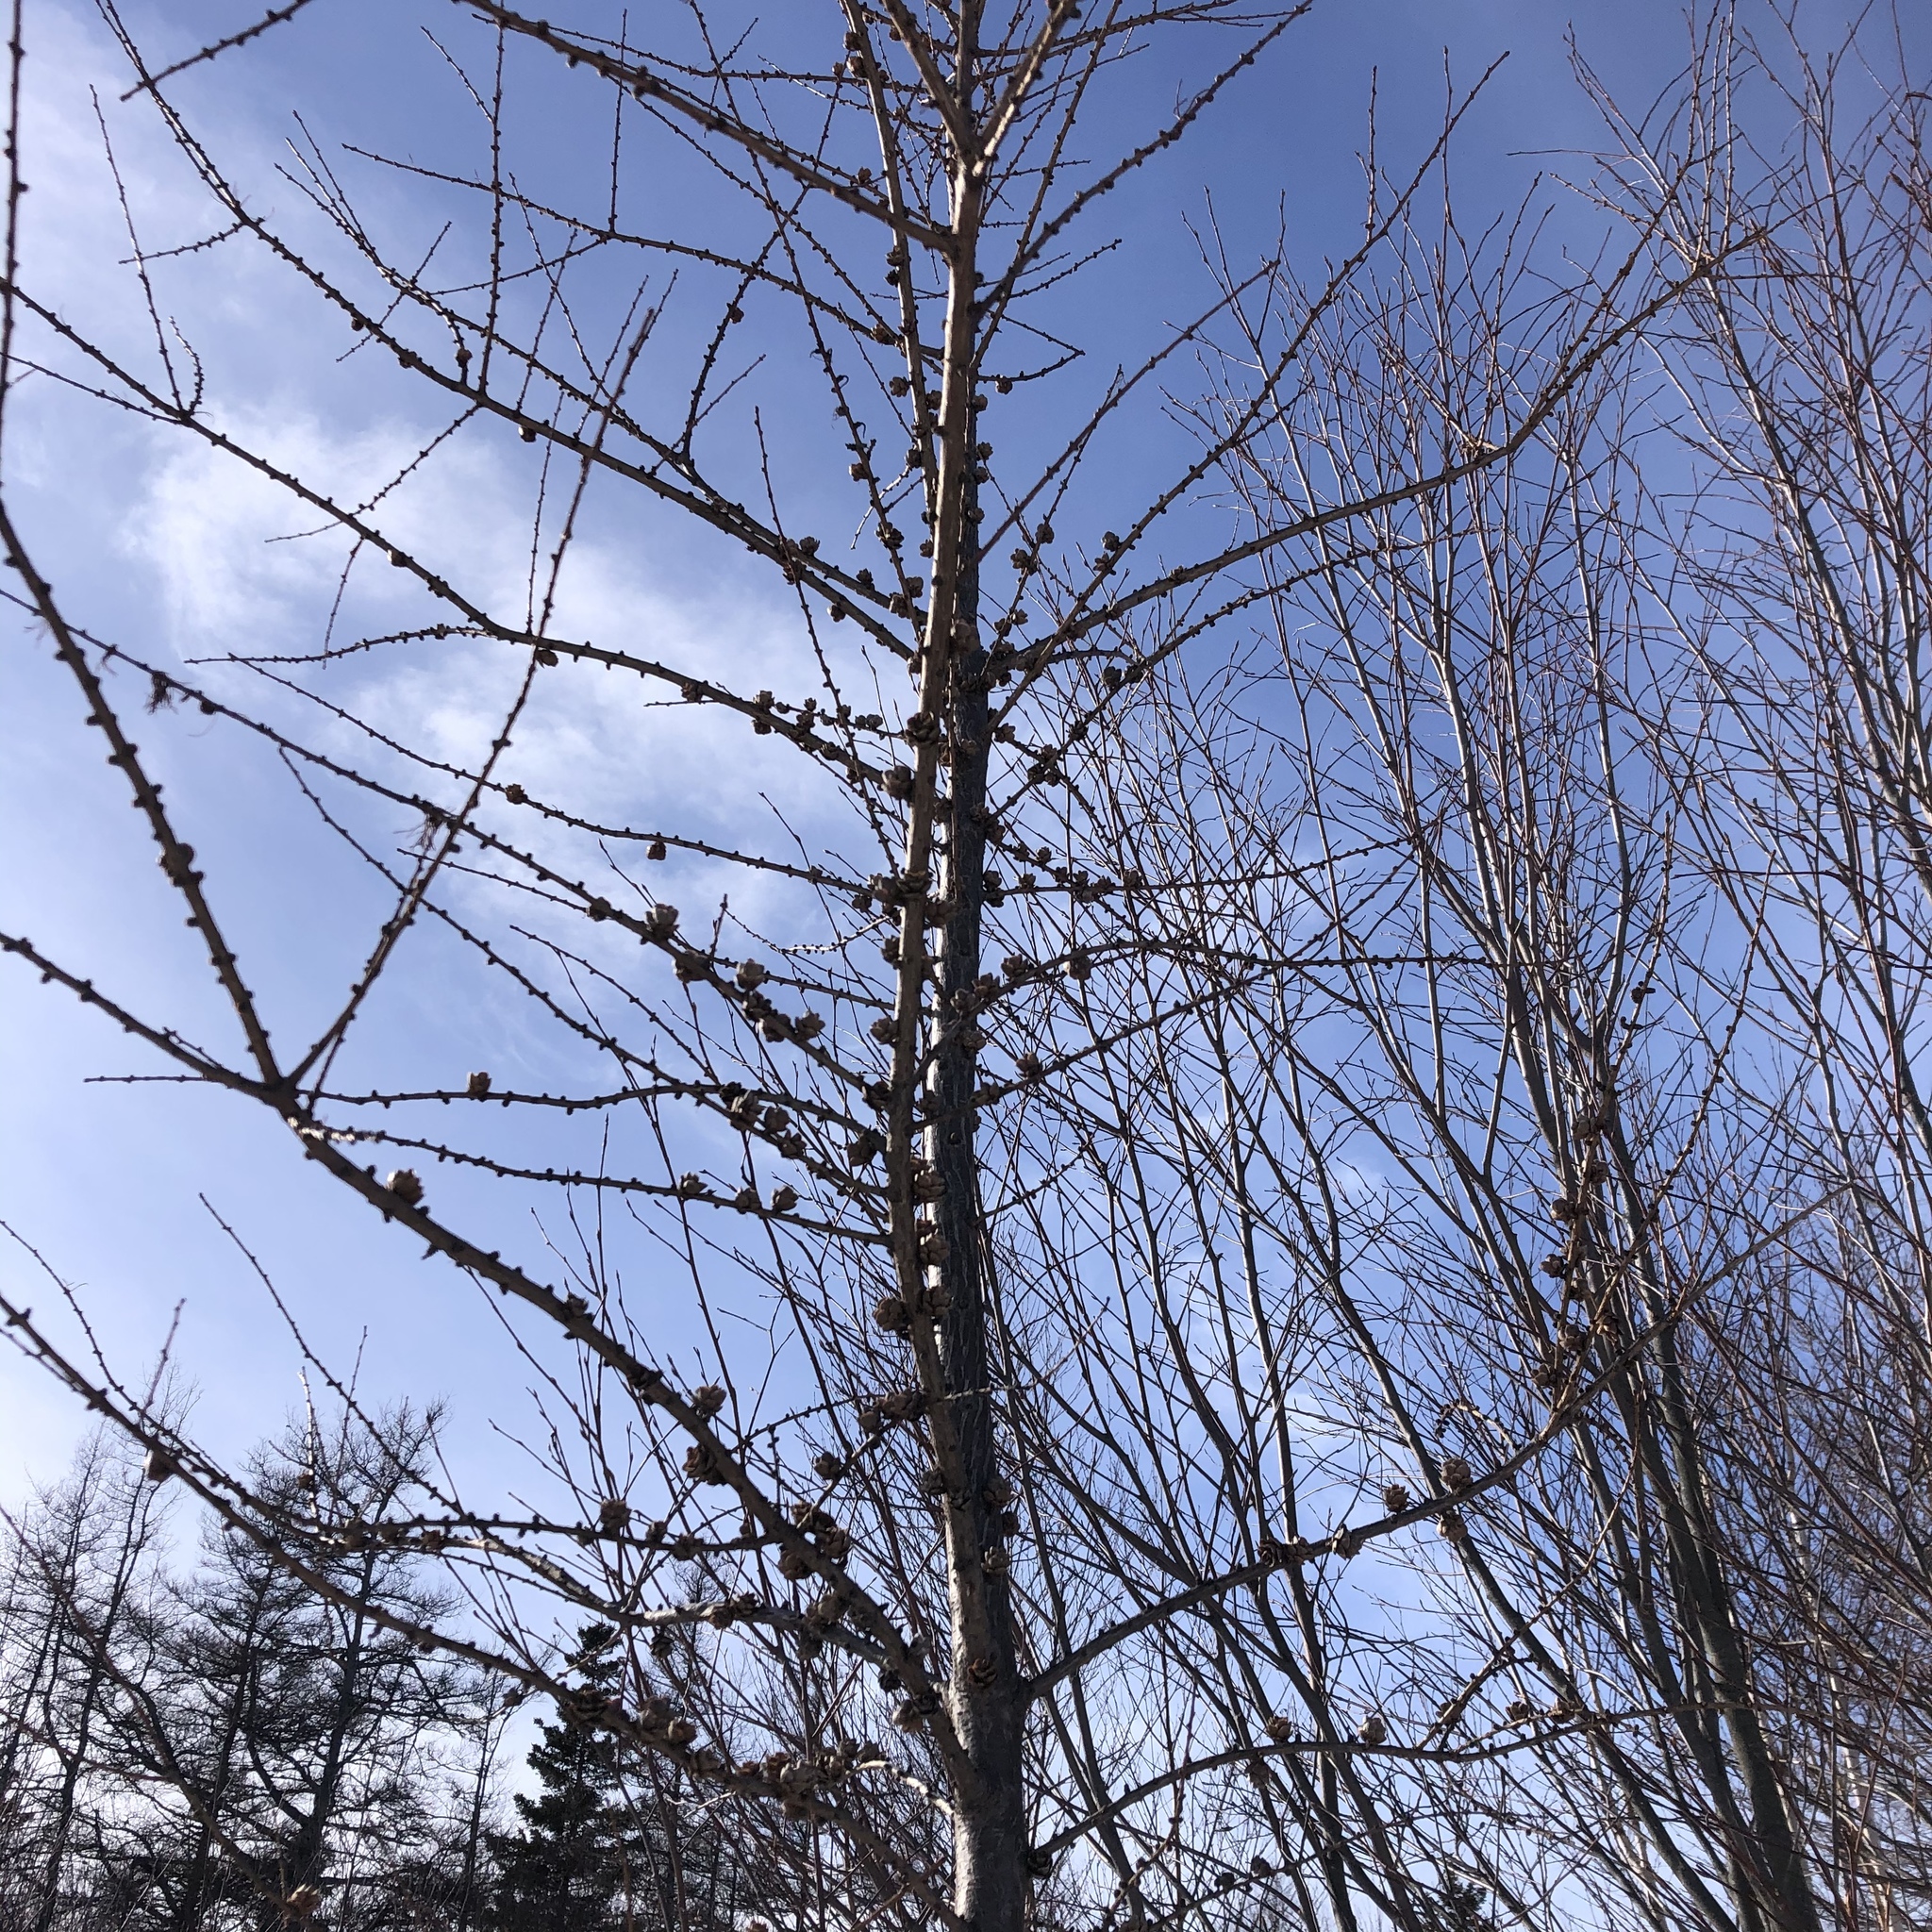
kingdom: Plantae
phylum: Tracheophyta
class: Pinopsida
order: Pinales
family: Pinaceae
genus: Larix
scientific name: Larix laricina
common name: American larch
